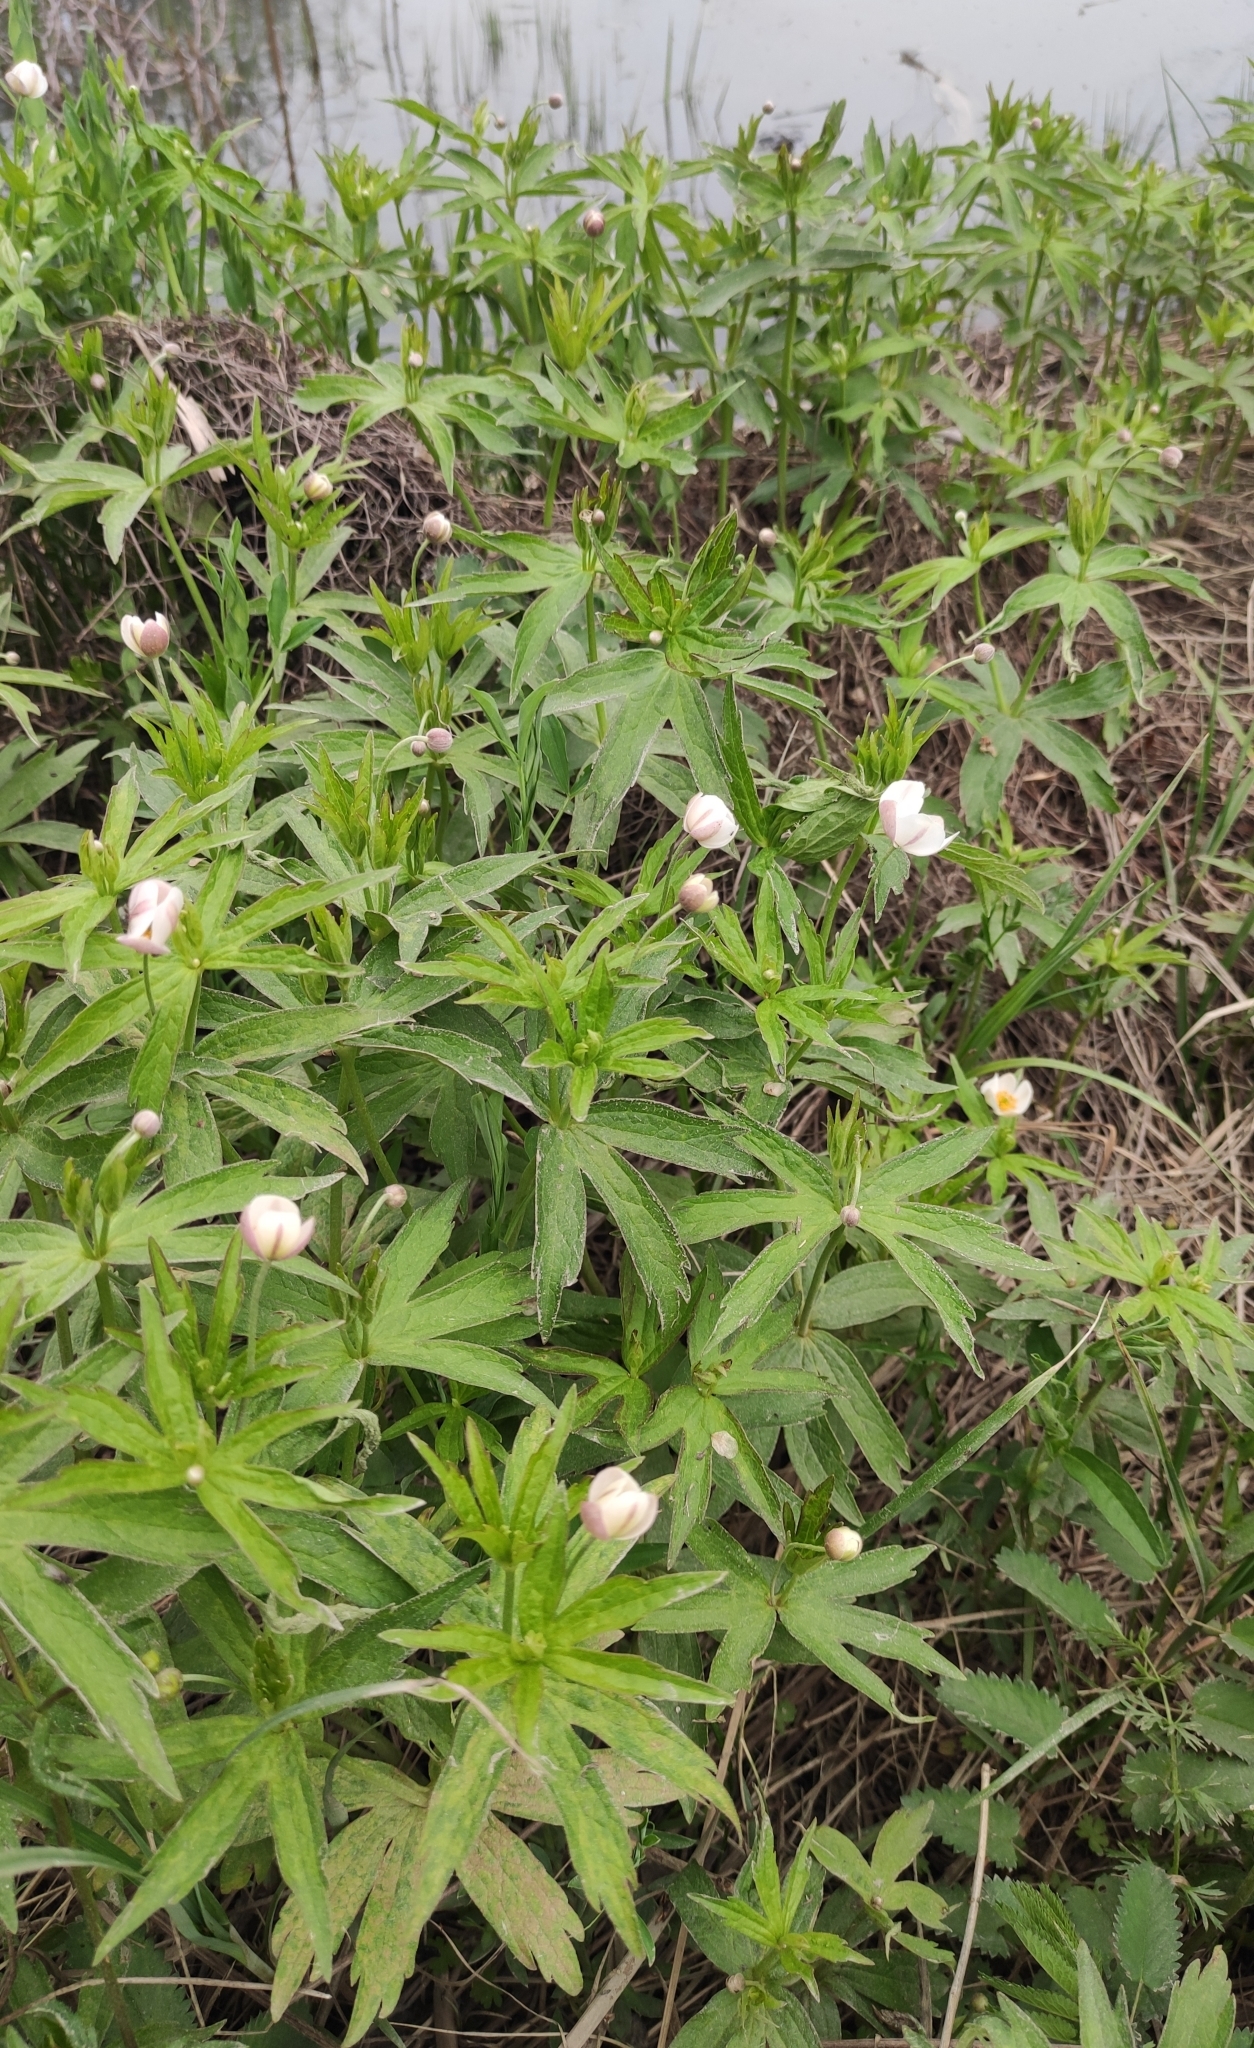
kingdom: Plantae
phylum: Tracheophyta
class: Magnoliopsida
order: Ranunculales
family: Ranunculaceae
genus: Anemonastrum
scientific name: Anemonastrum dichotomum
